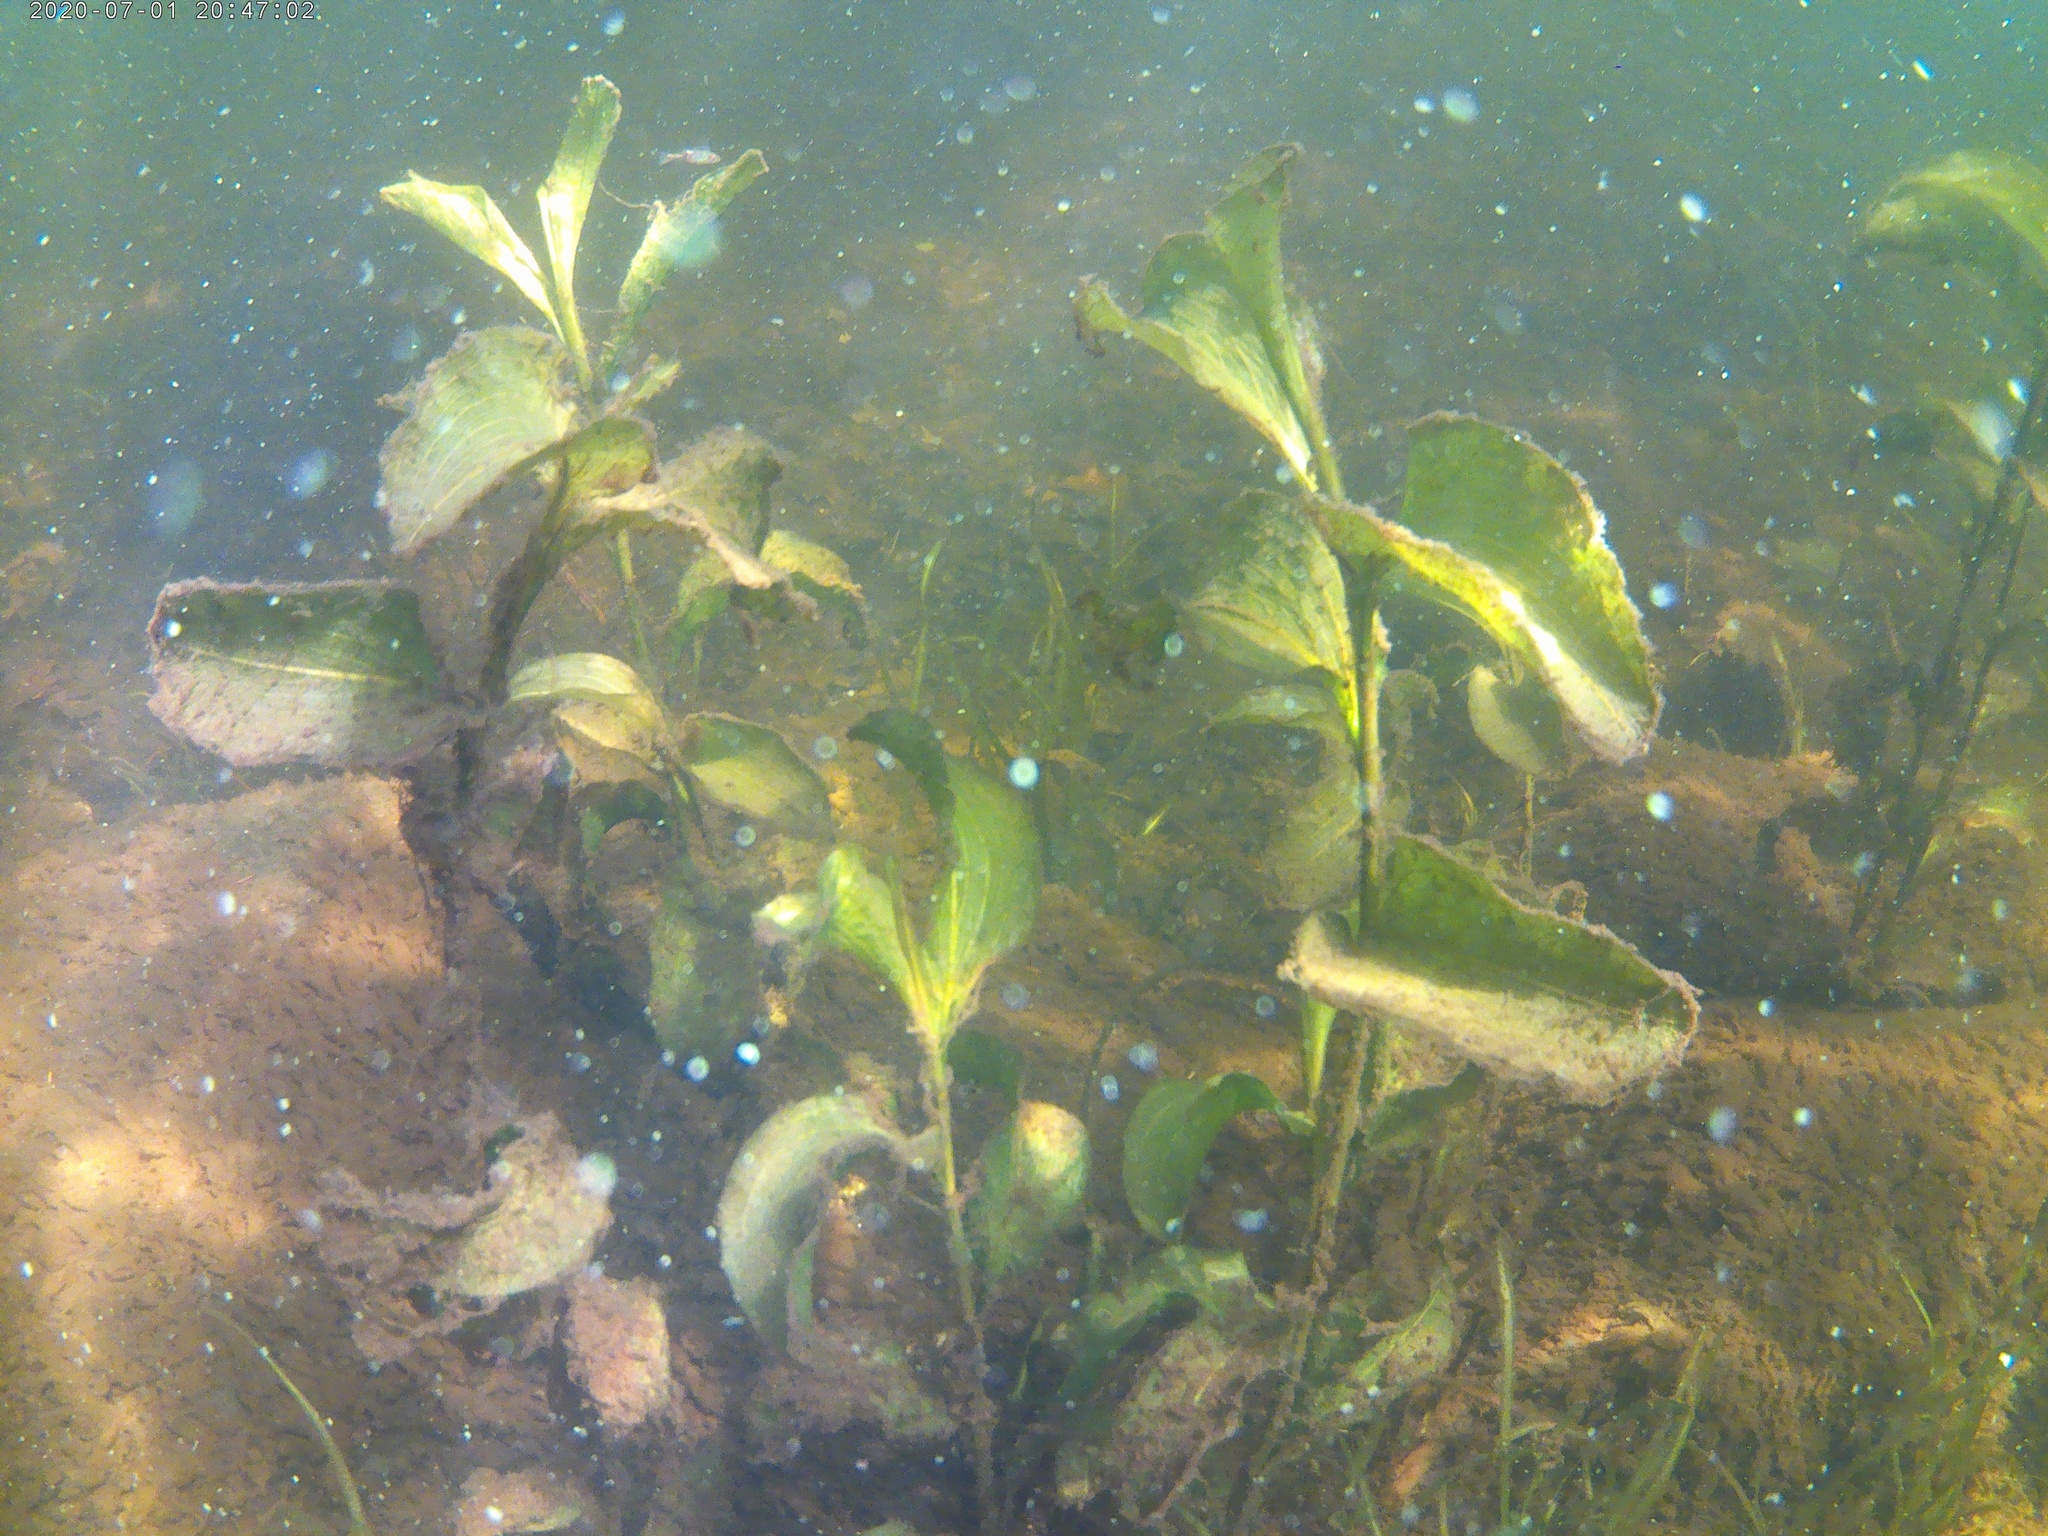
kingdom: Plantae
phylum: Tracheophyta
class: Liliopsida
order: Alismatales
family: Potamogetonaceae
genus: Potamogeton
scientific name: Potamogeton amplifolius
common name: Broad-leaved pondweed
